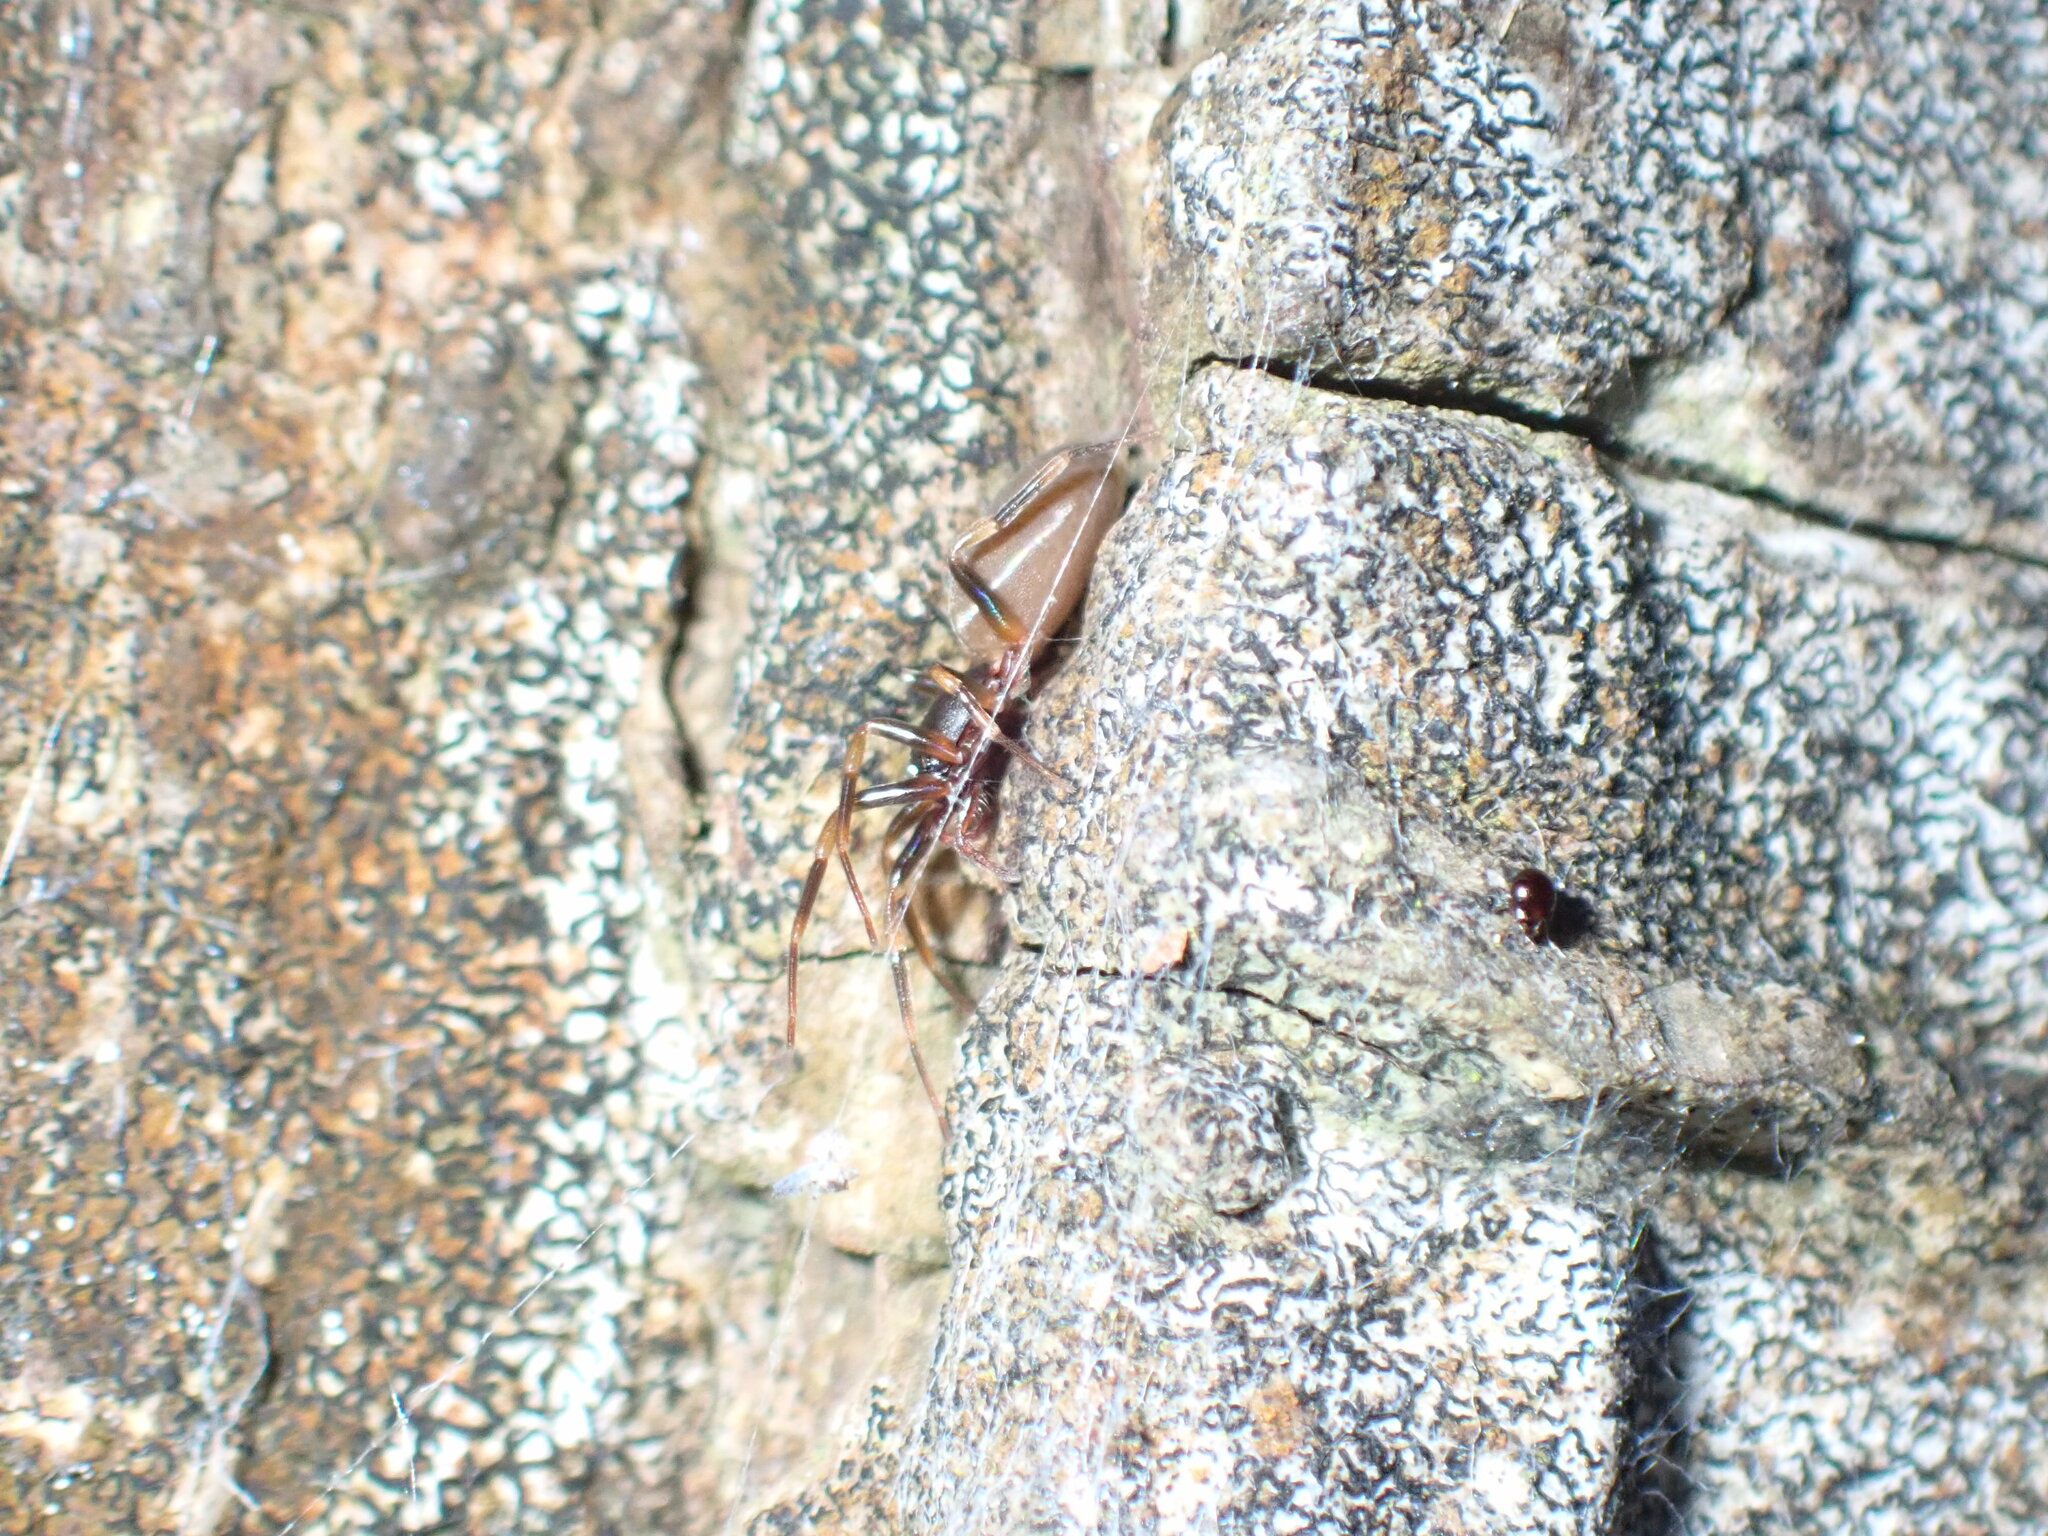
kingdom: Animalia
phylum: Arthropoda
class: Arachnida
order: Araneae
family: Dysderidae
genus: Harpactea
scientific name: Harpactea hombergi
